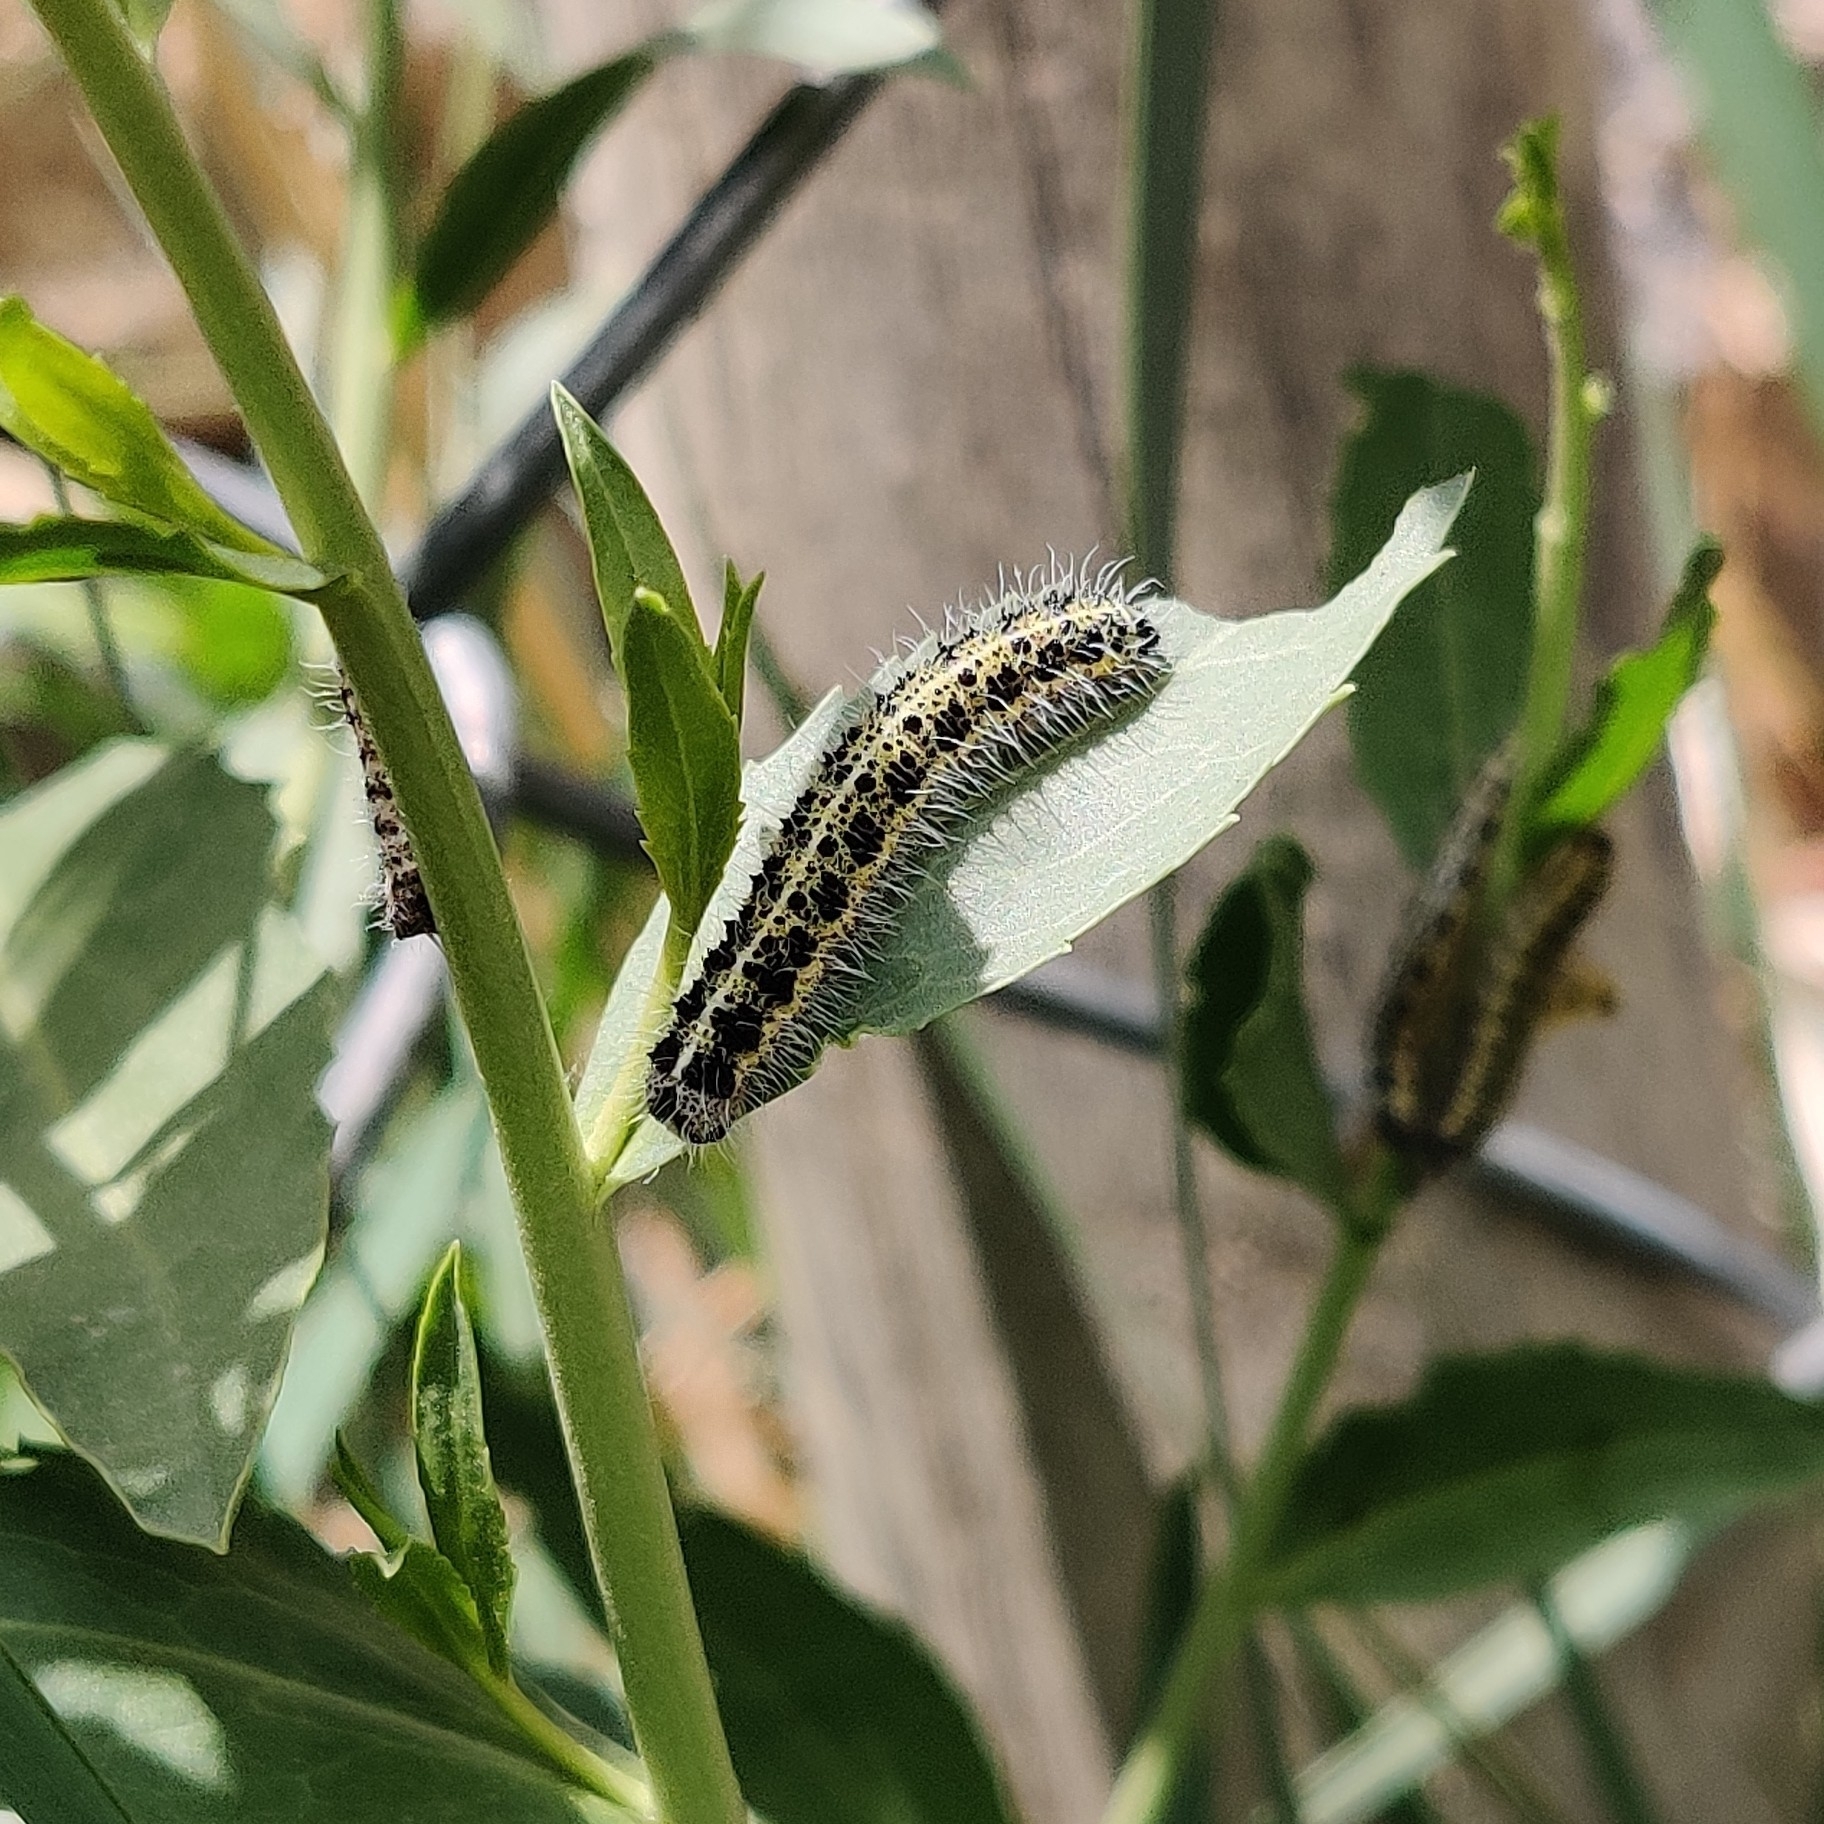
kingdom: Animalia
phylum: Arthropoda
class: Insecta
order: Lepidoptera
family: Pieridae
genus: Pieris
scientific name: Pieris brassicae
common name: Large white
